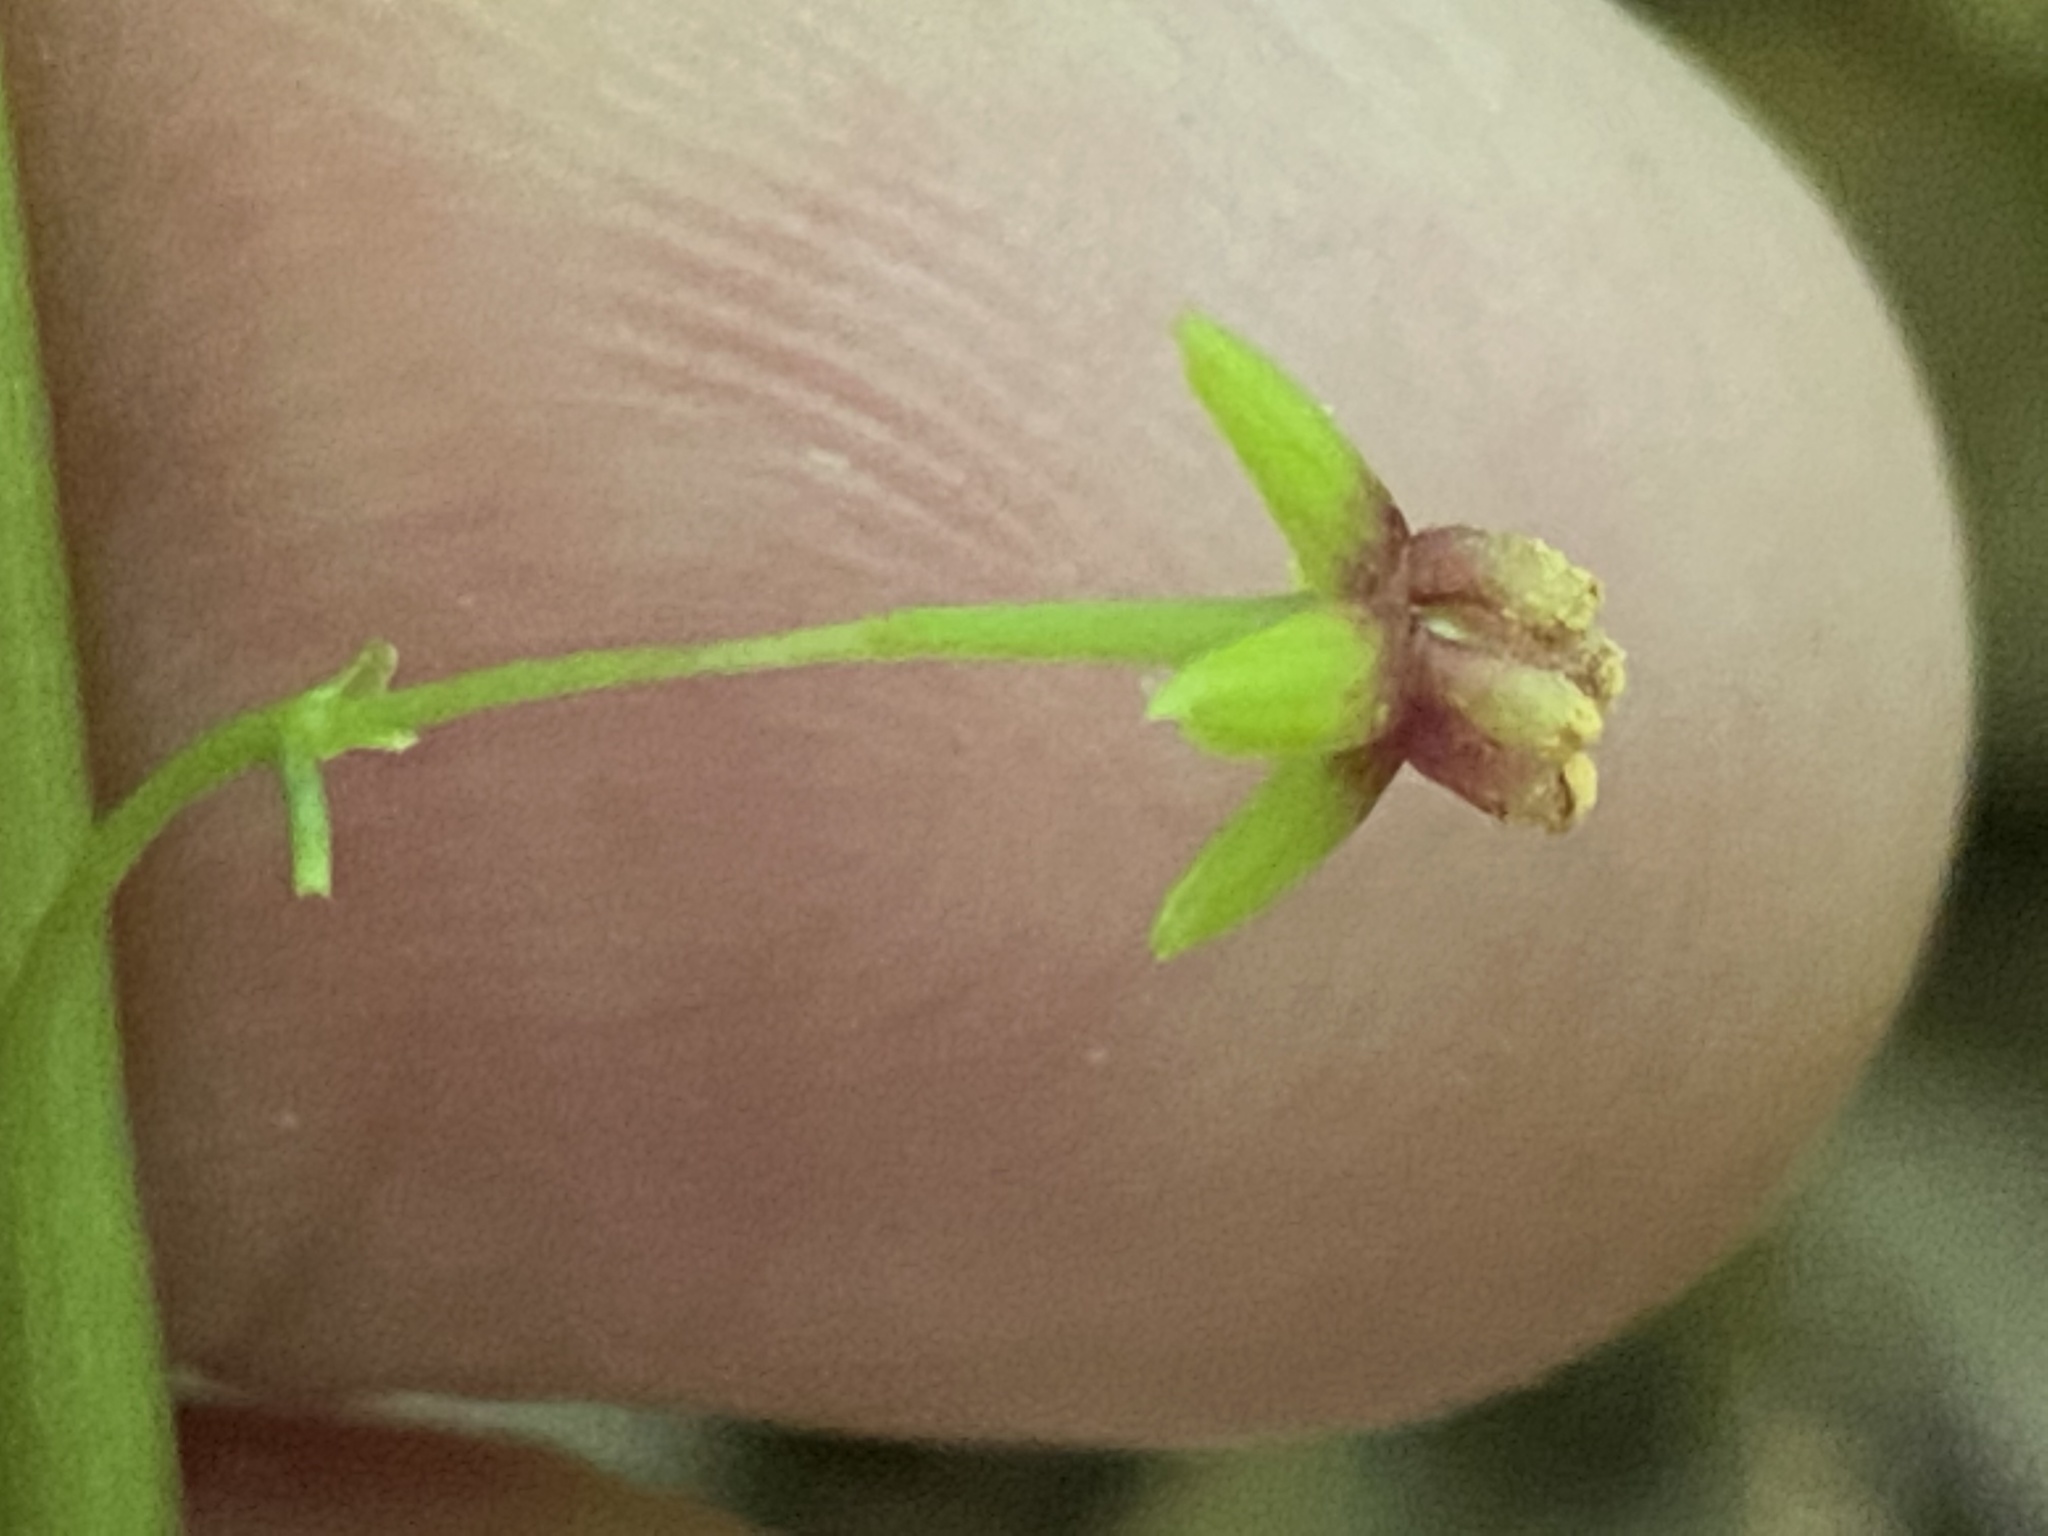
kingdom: Plantae
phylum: Tracheophyta
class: Liliopsida
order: Pandanales
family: Stemonaceae
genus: Croomia
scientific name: Croomia pauciflora
